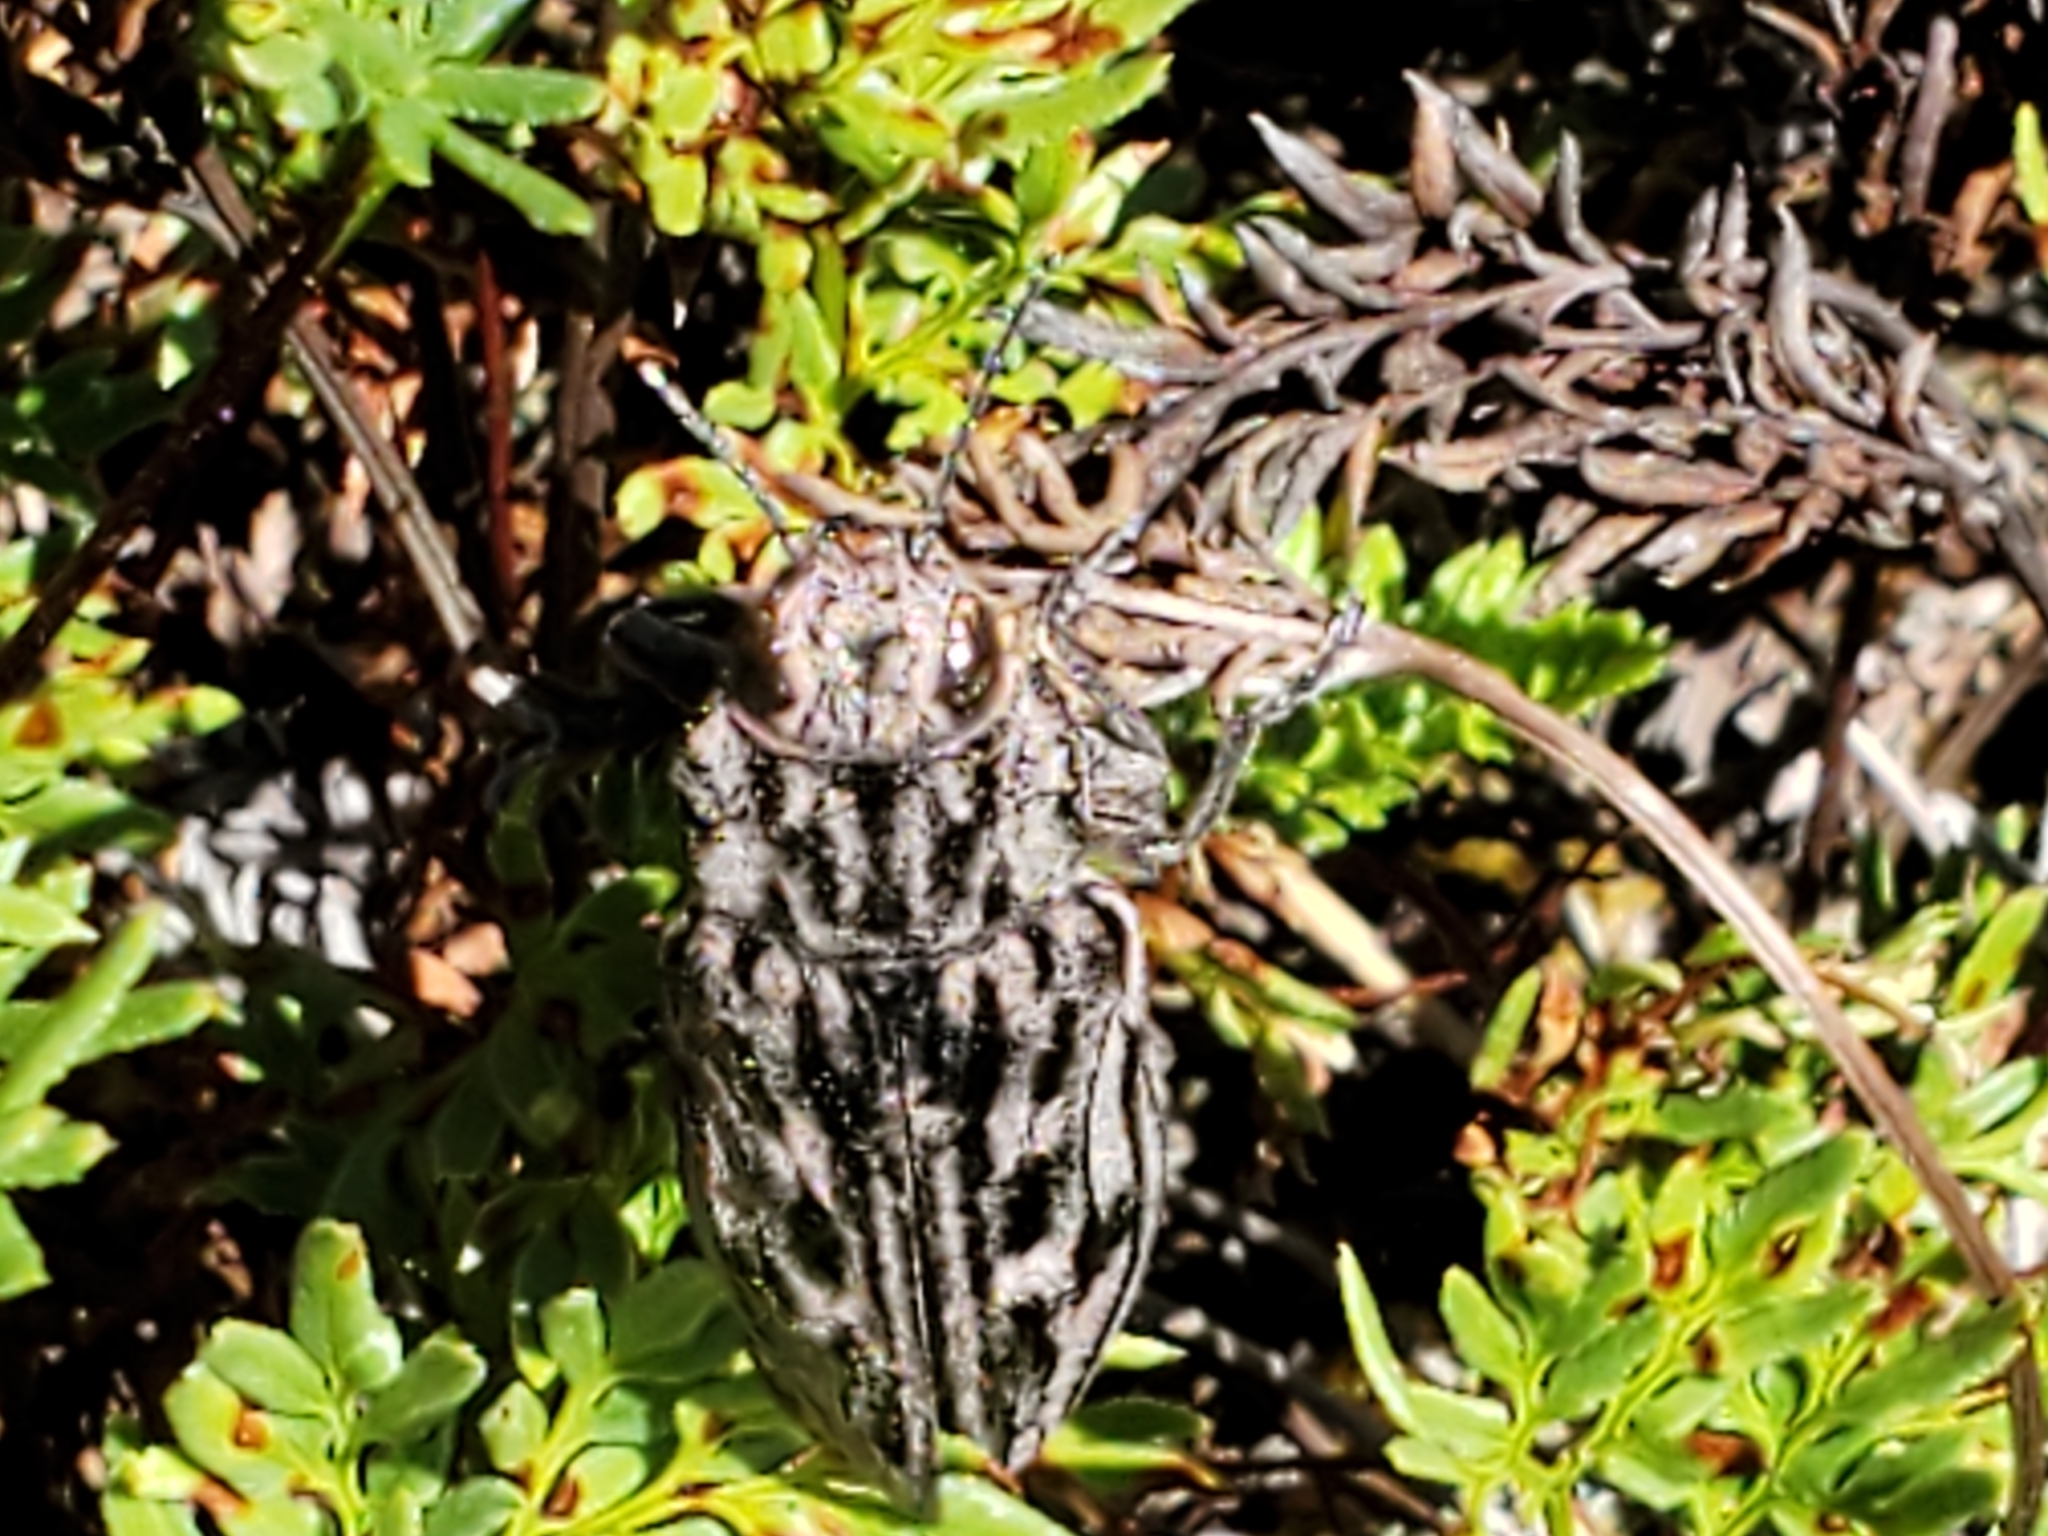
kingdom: Animalia
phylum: Arthropoda
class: Insecta
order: Coleoptera
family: Buprestidae
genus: Chalcophora
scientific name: Chalcophora angulicollis
